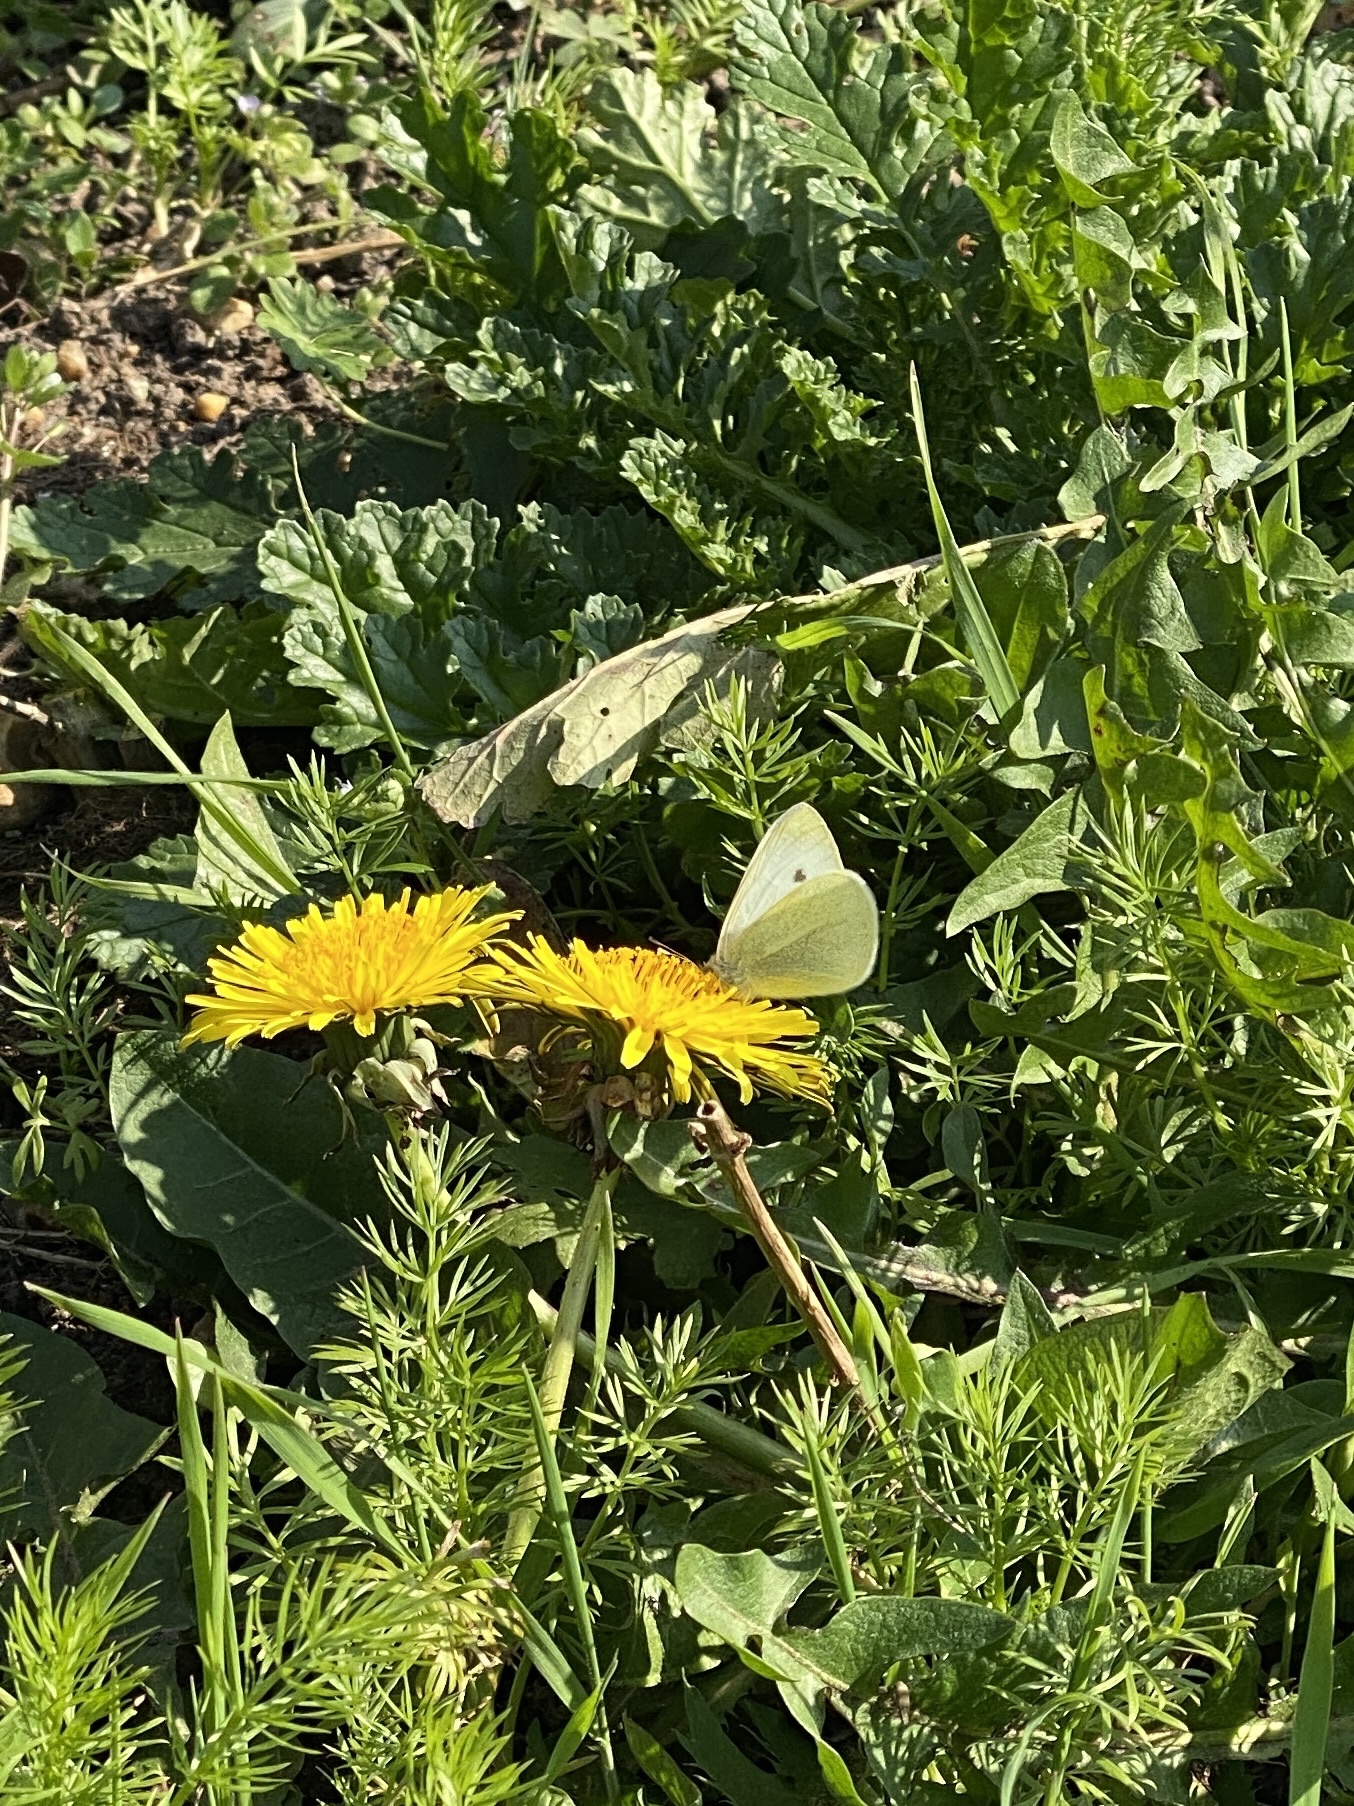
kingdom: Animalia
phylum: Arthropoda
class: Insecta
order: Lepidoptera
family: Pieridae
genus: Pieris
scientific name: Pieris rapae
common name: Small white
